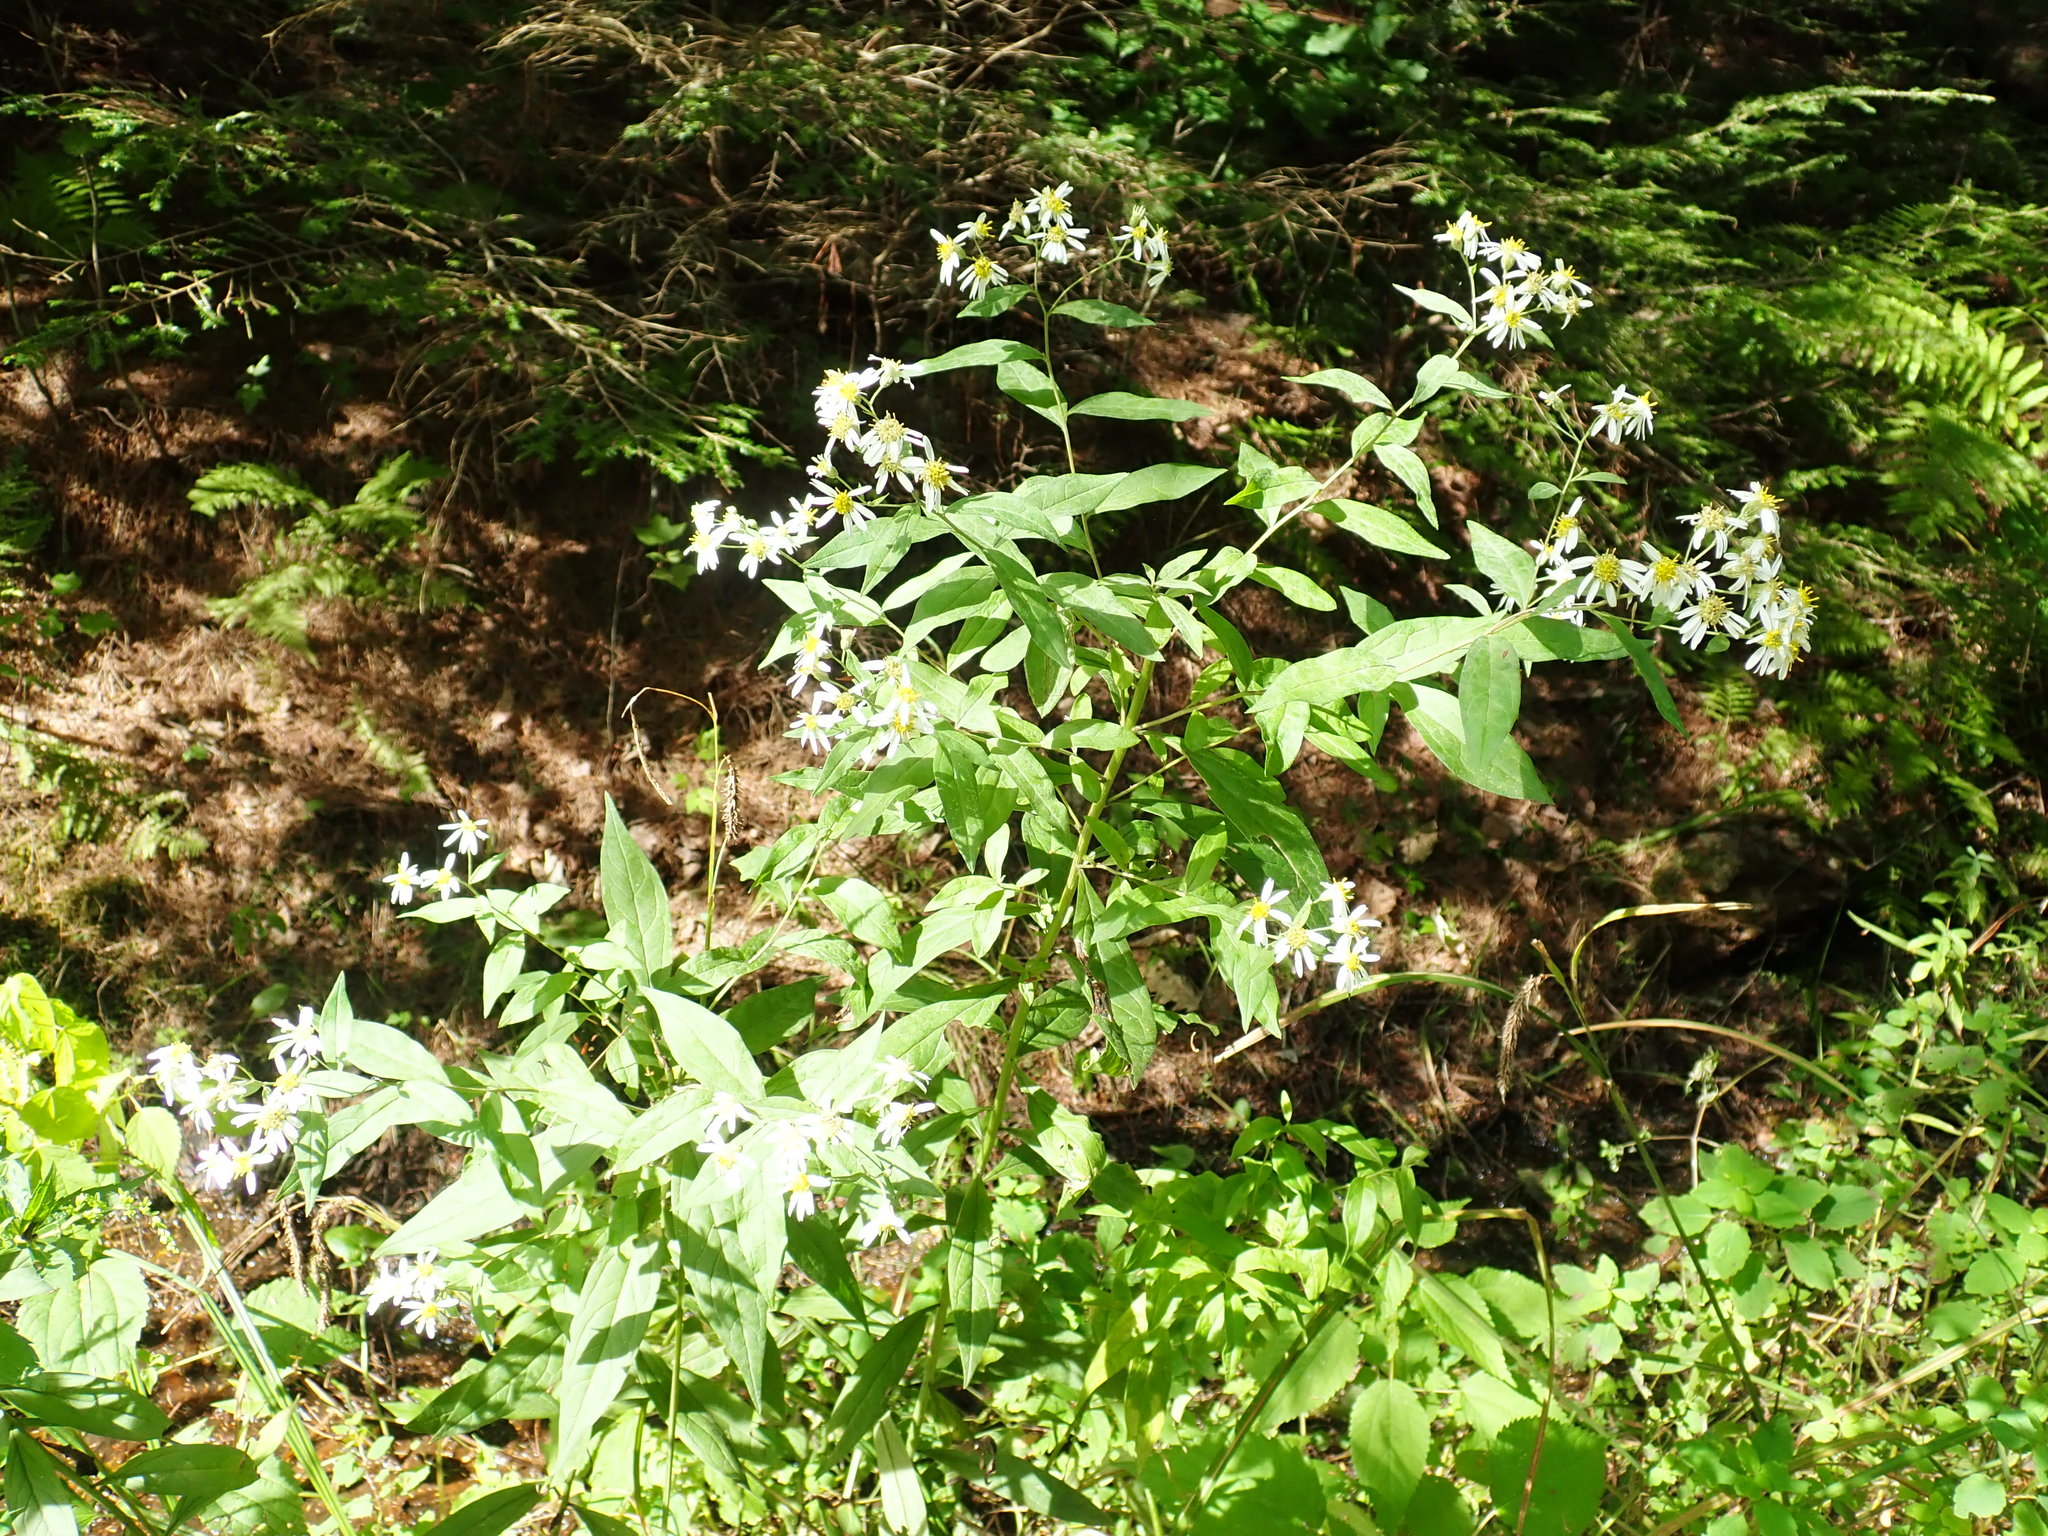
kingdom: Plantae
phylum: Tracheophyta
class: Magnoliopsida
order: Asterales
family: Asteraceae
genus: Doellingeria
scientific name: Doellingeria umbellata
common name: Flat-top white aster
